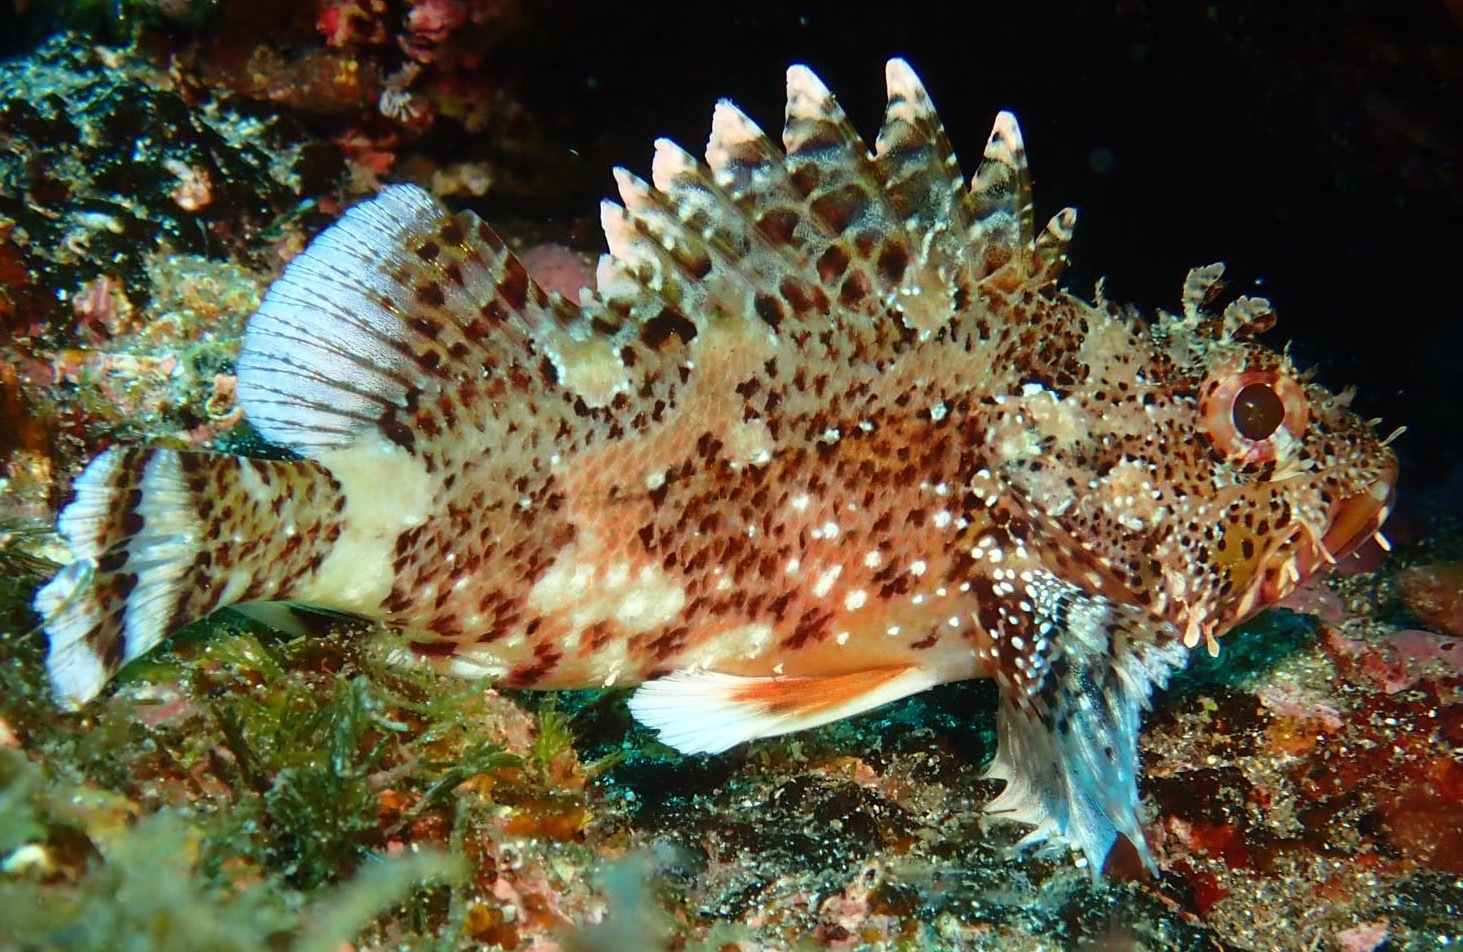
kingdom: Animalia
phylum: Chordata
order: Scorpaeniformes
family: Scorpaenidae
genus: Scorpaena
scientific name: Scorpaena maderensis
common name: Madeira rockfish
